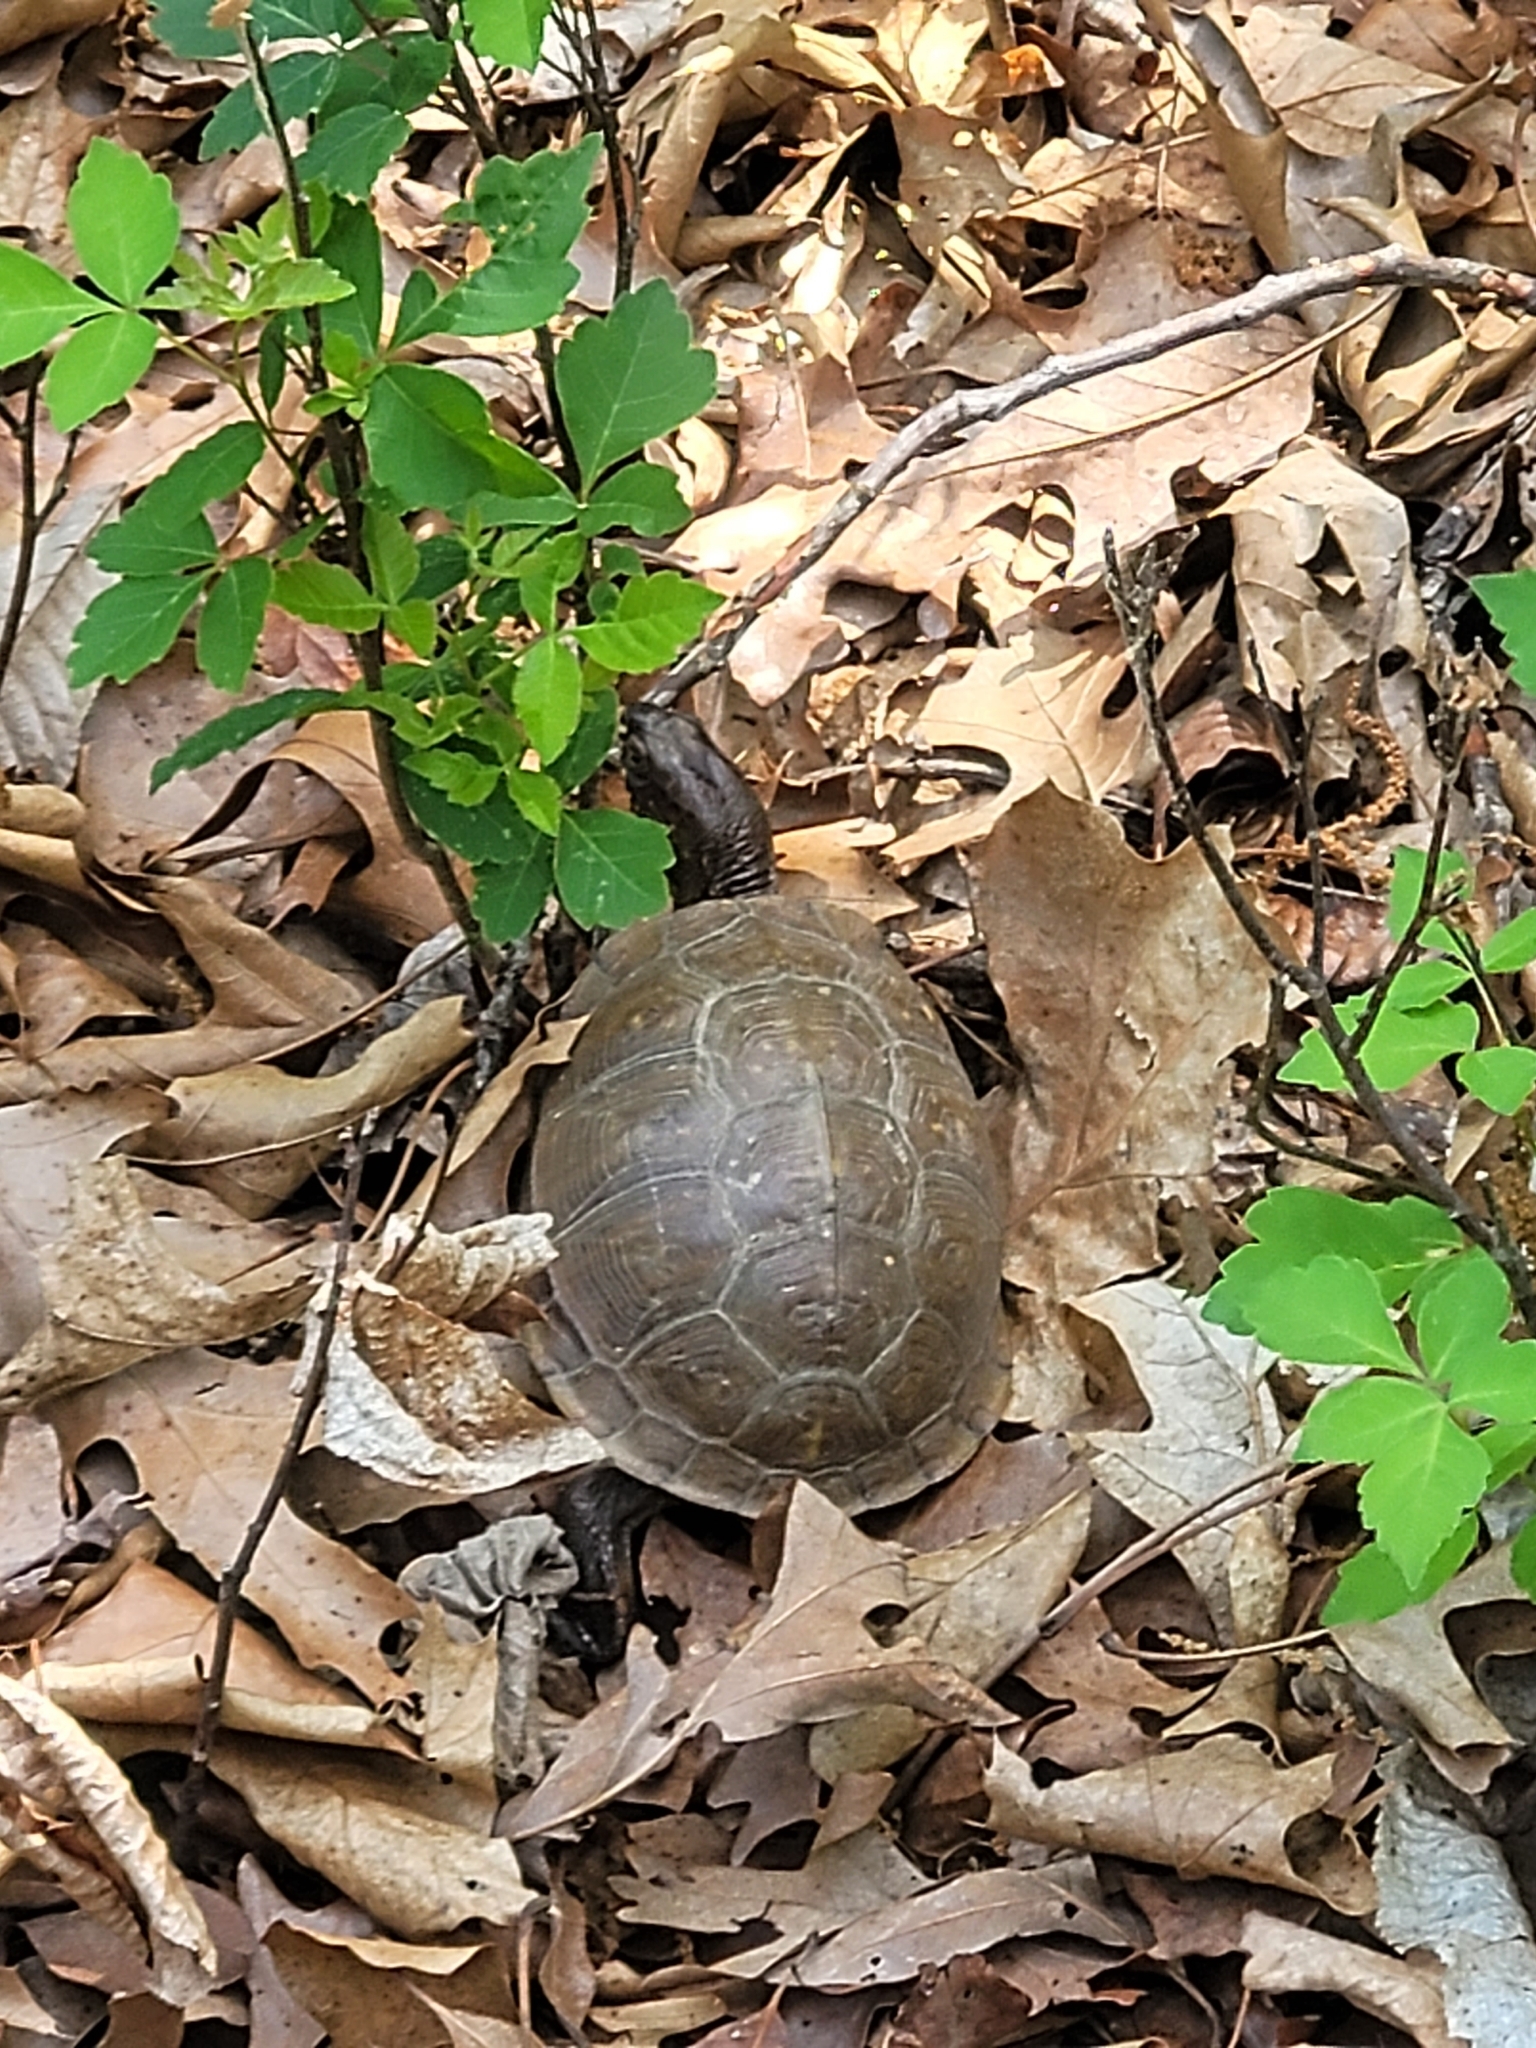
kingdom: Animalia
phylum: Chordata
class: Testudines
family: Emydidae
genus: Terrapene
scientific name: Terrapene carolina
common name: Common box turtle
